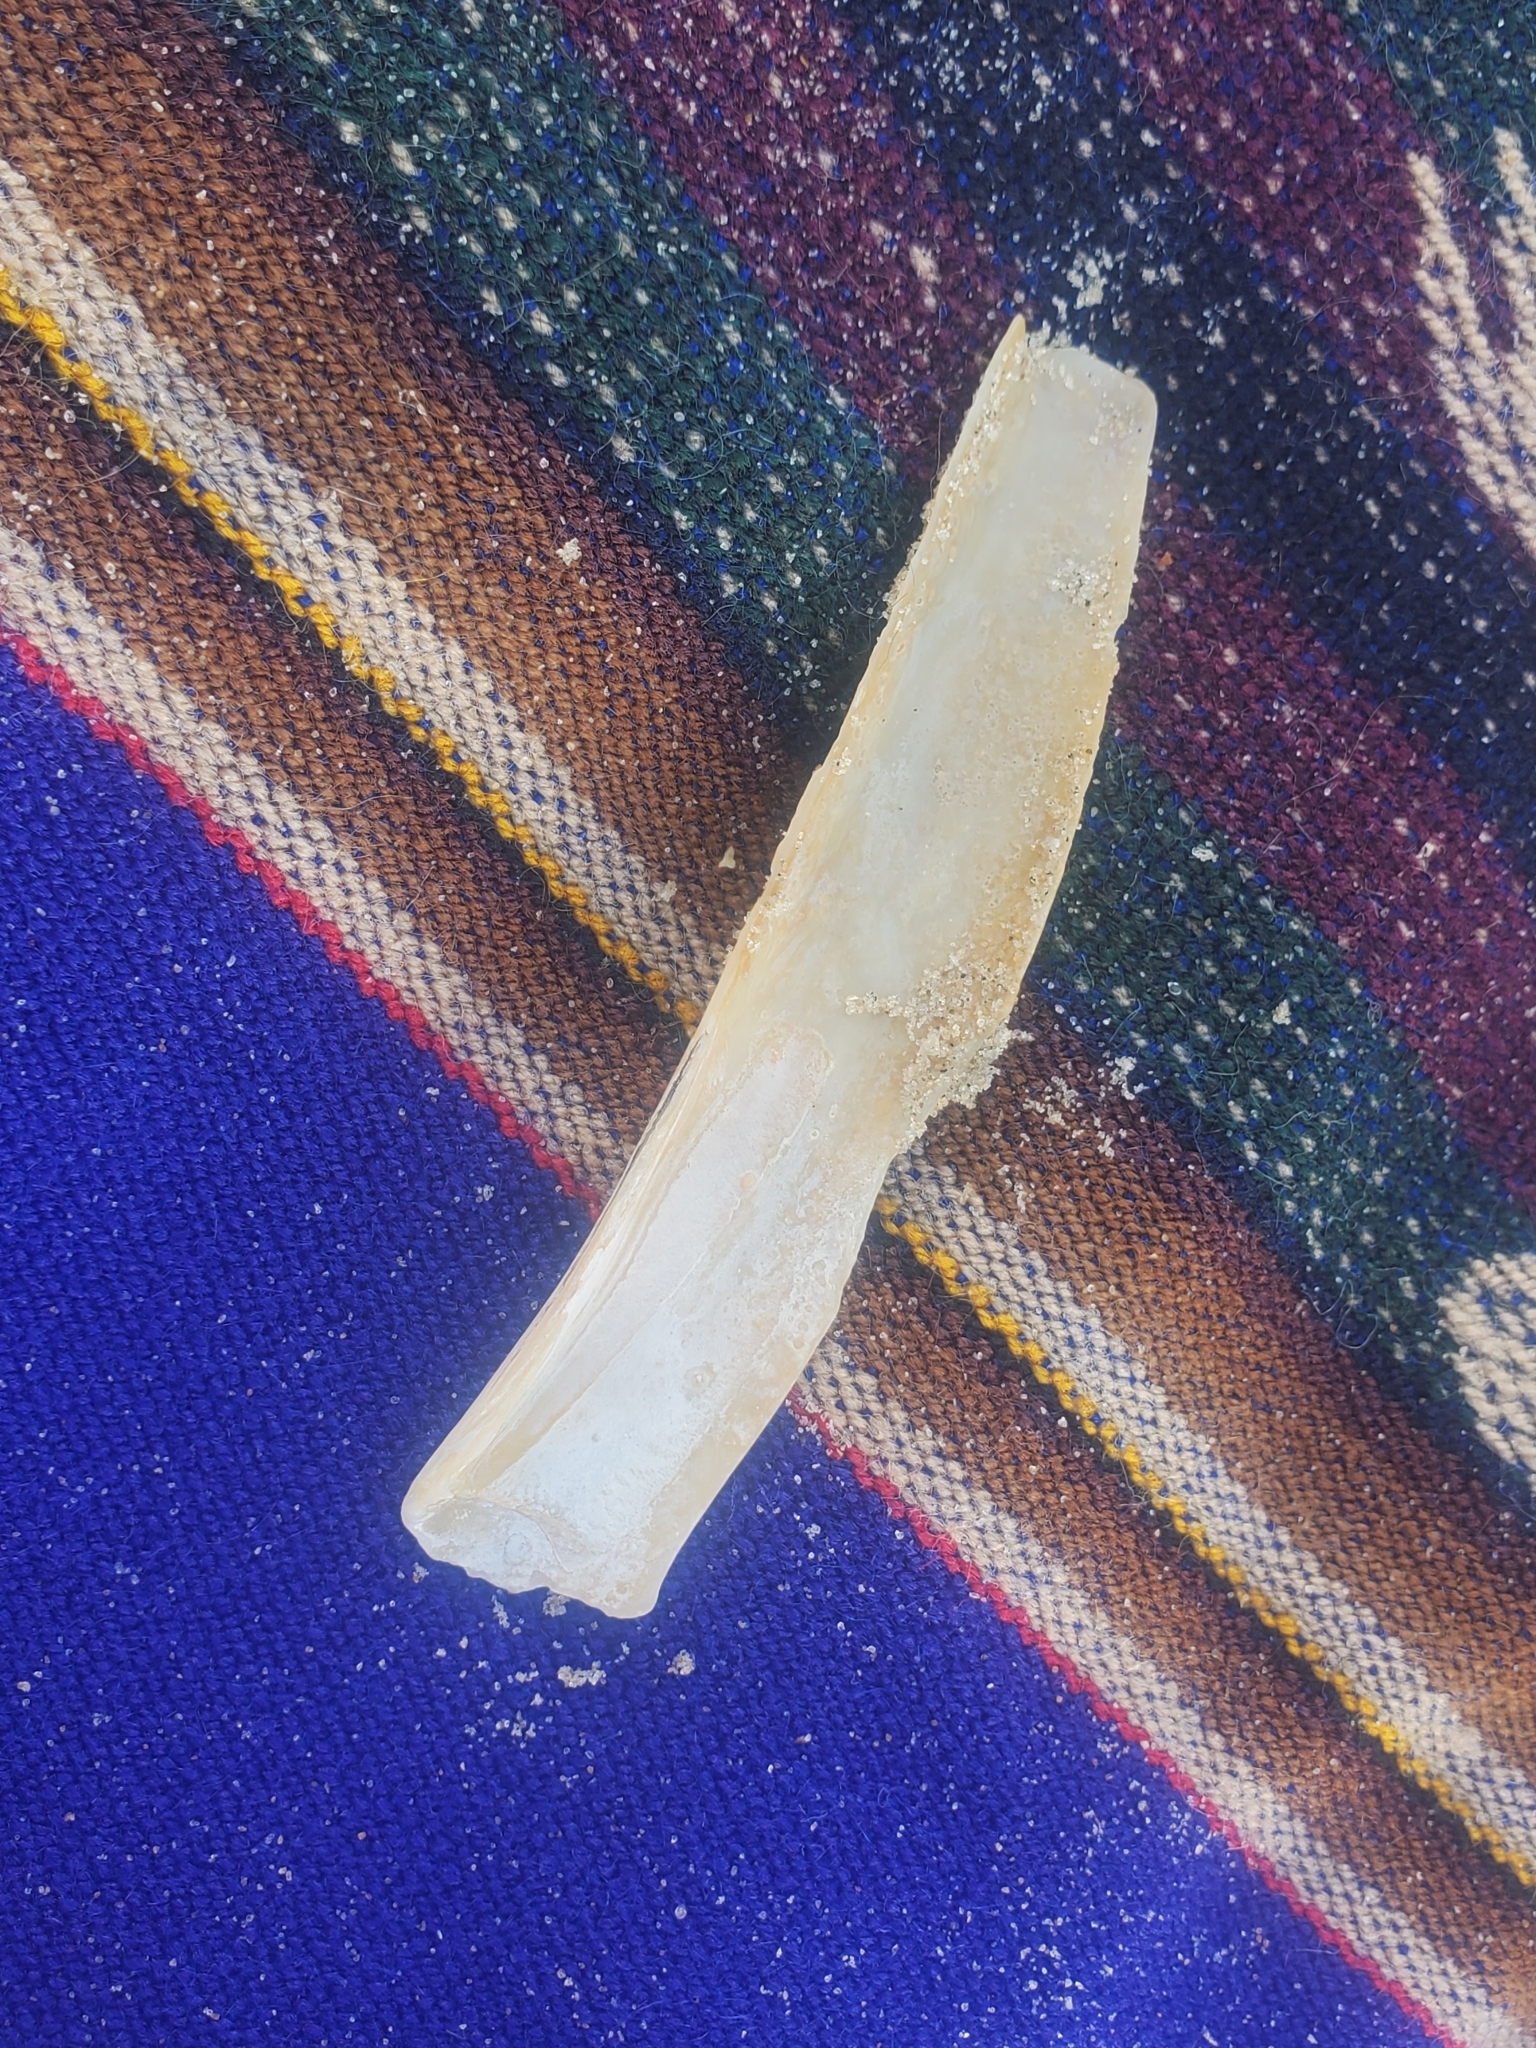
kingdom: Animalia
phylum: Mollusca
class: Bivalvia
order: Adapedonta
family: Pharidae
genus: Ensis
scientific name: Ensis leei
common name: American jack knife clam
